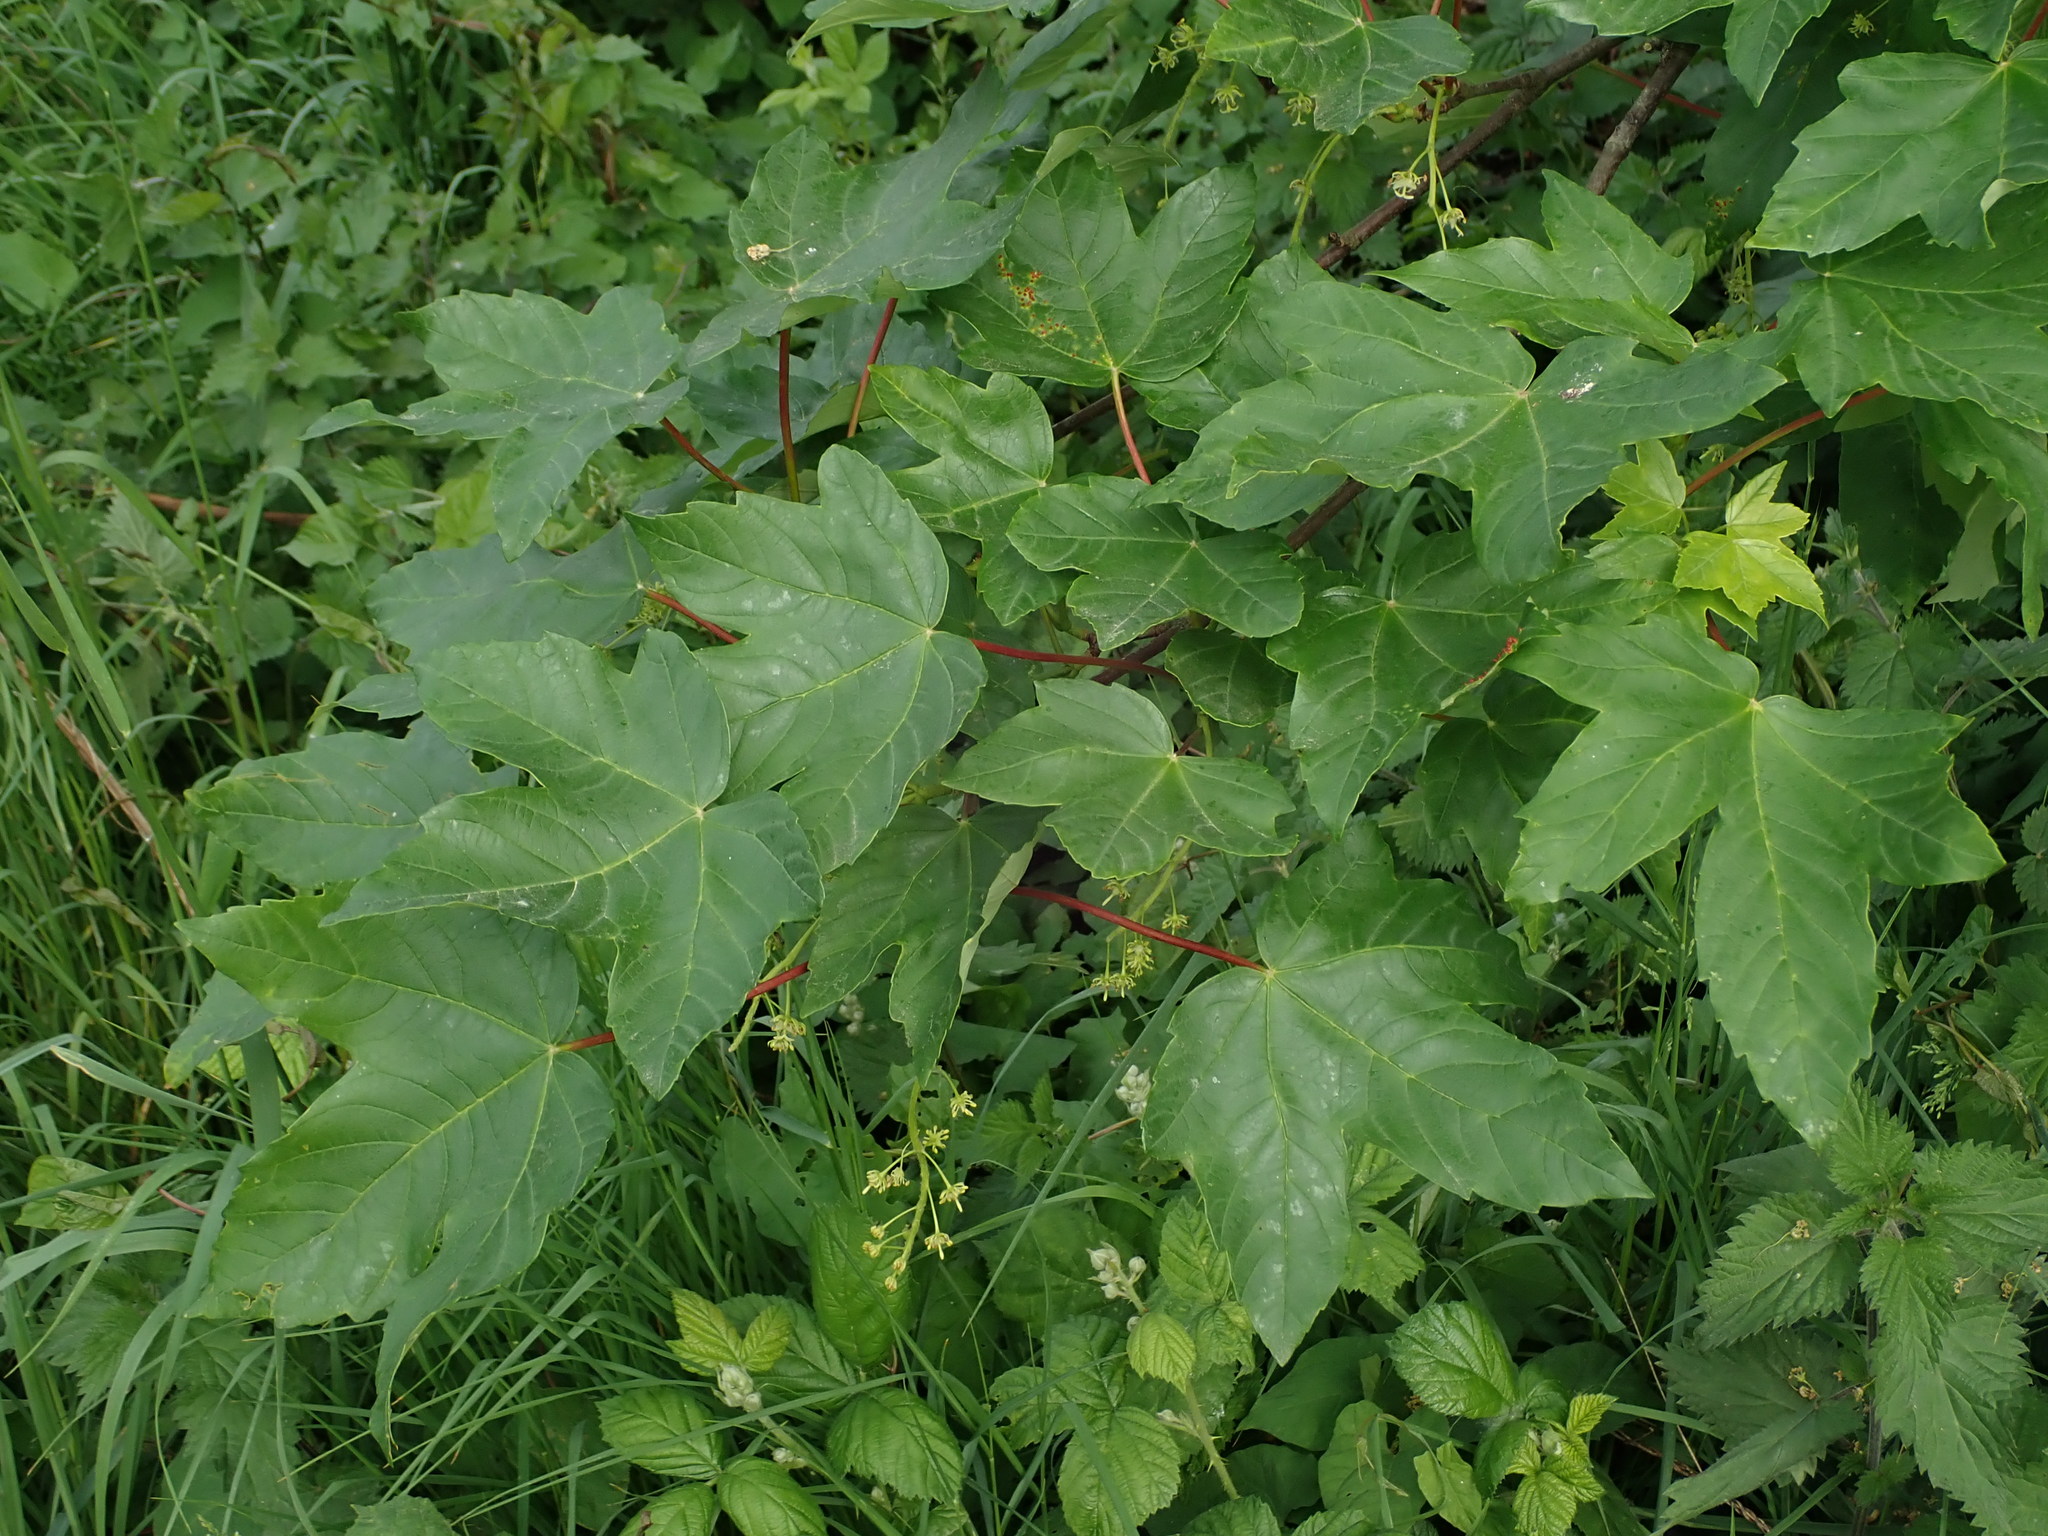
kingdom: Plantae
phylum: Tracheophyta
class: Magnoliopsida
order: Sapindales
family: Sapindaceae
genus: Acer
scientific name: Acer pseudoplatanus
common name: Sycamore
